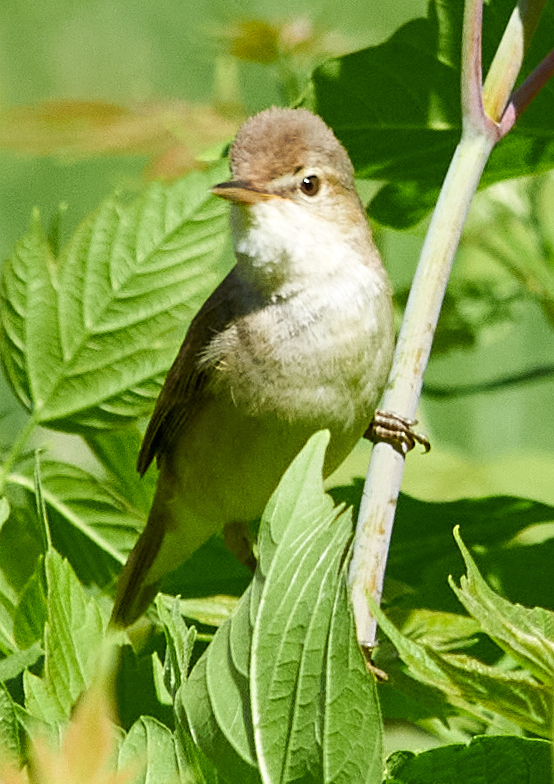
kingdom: Animalia
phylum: Chordata
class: Aves
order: Passeriformes
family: Acrocephalidae
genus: Acrocephalus
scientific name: Acrocephalus dumetorum
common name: Blyth's reed warbler
